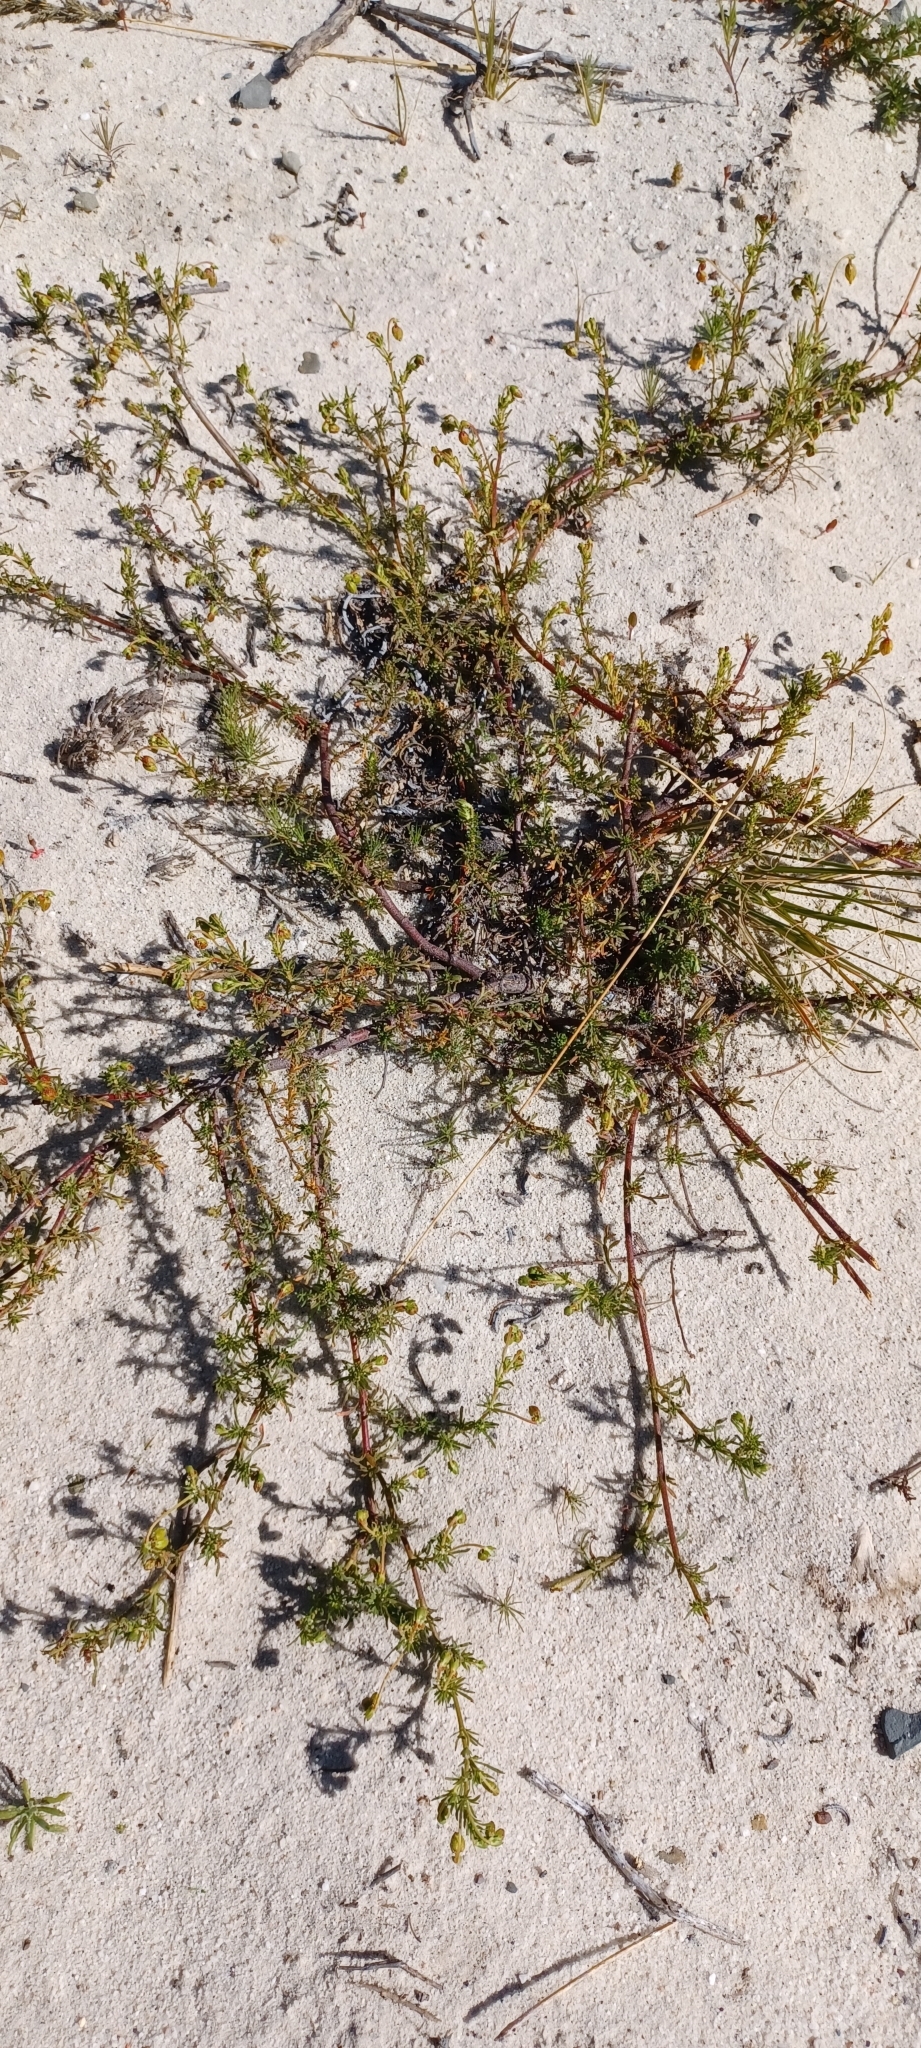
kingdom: Plantae
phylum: Tracheophyta
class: Magnoliopsida
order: Malvales
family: Malvaceae
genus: Hermannia
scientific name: Hermannia pinnata
